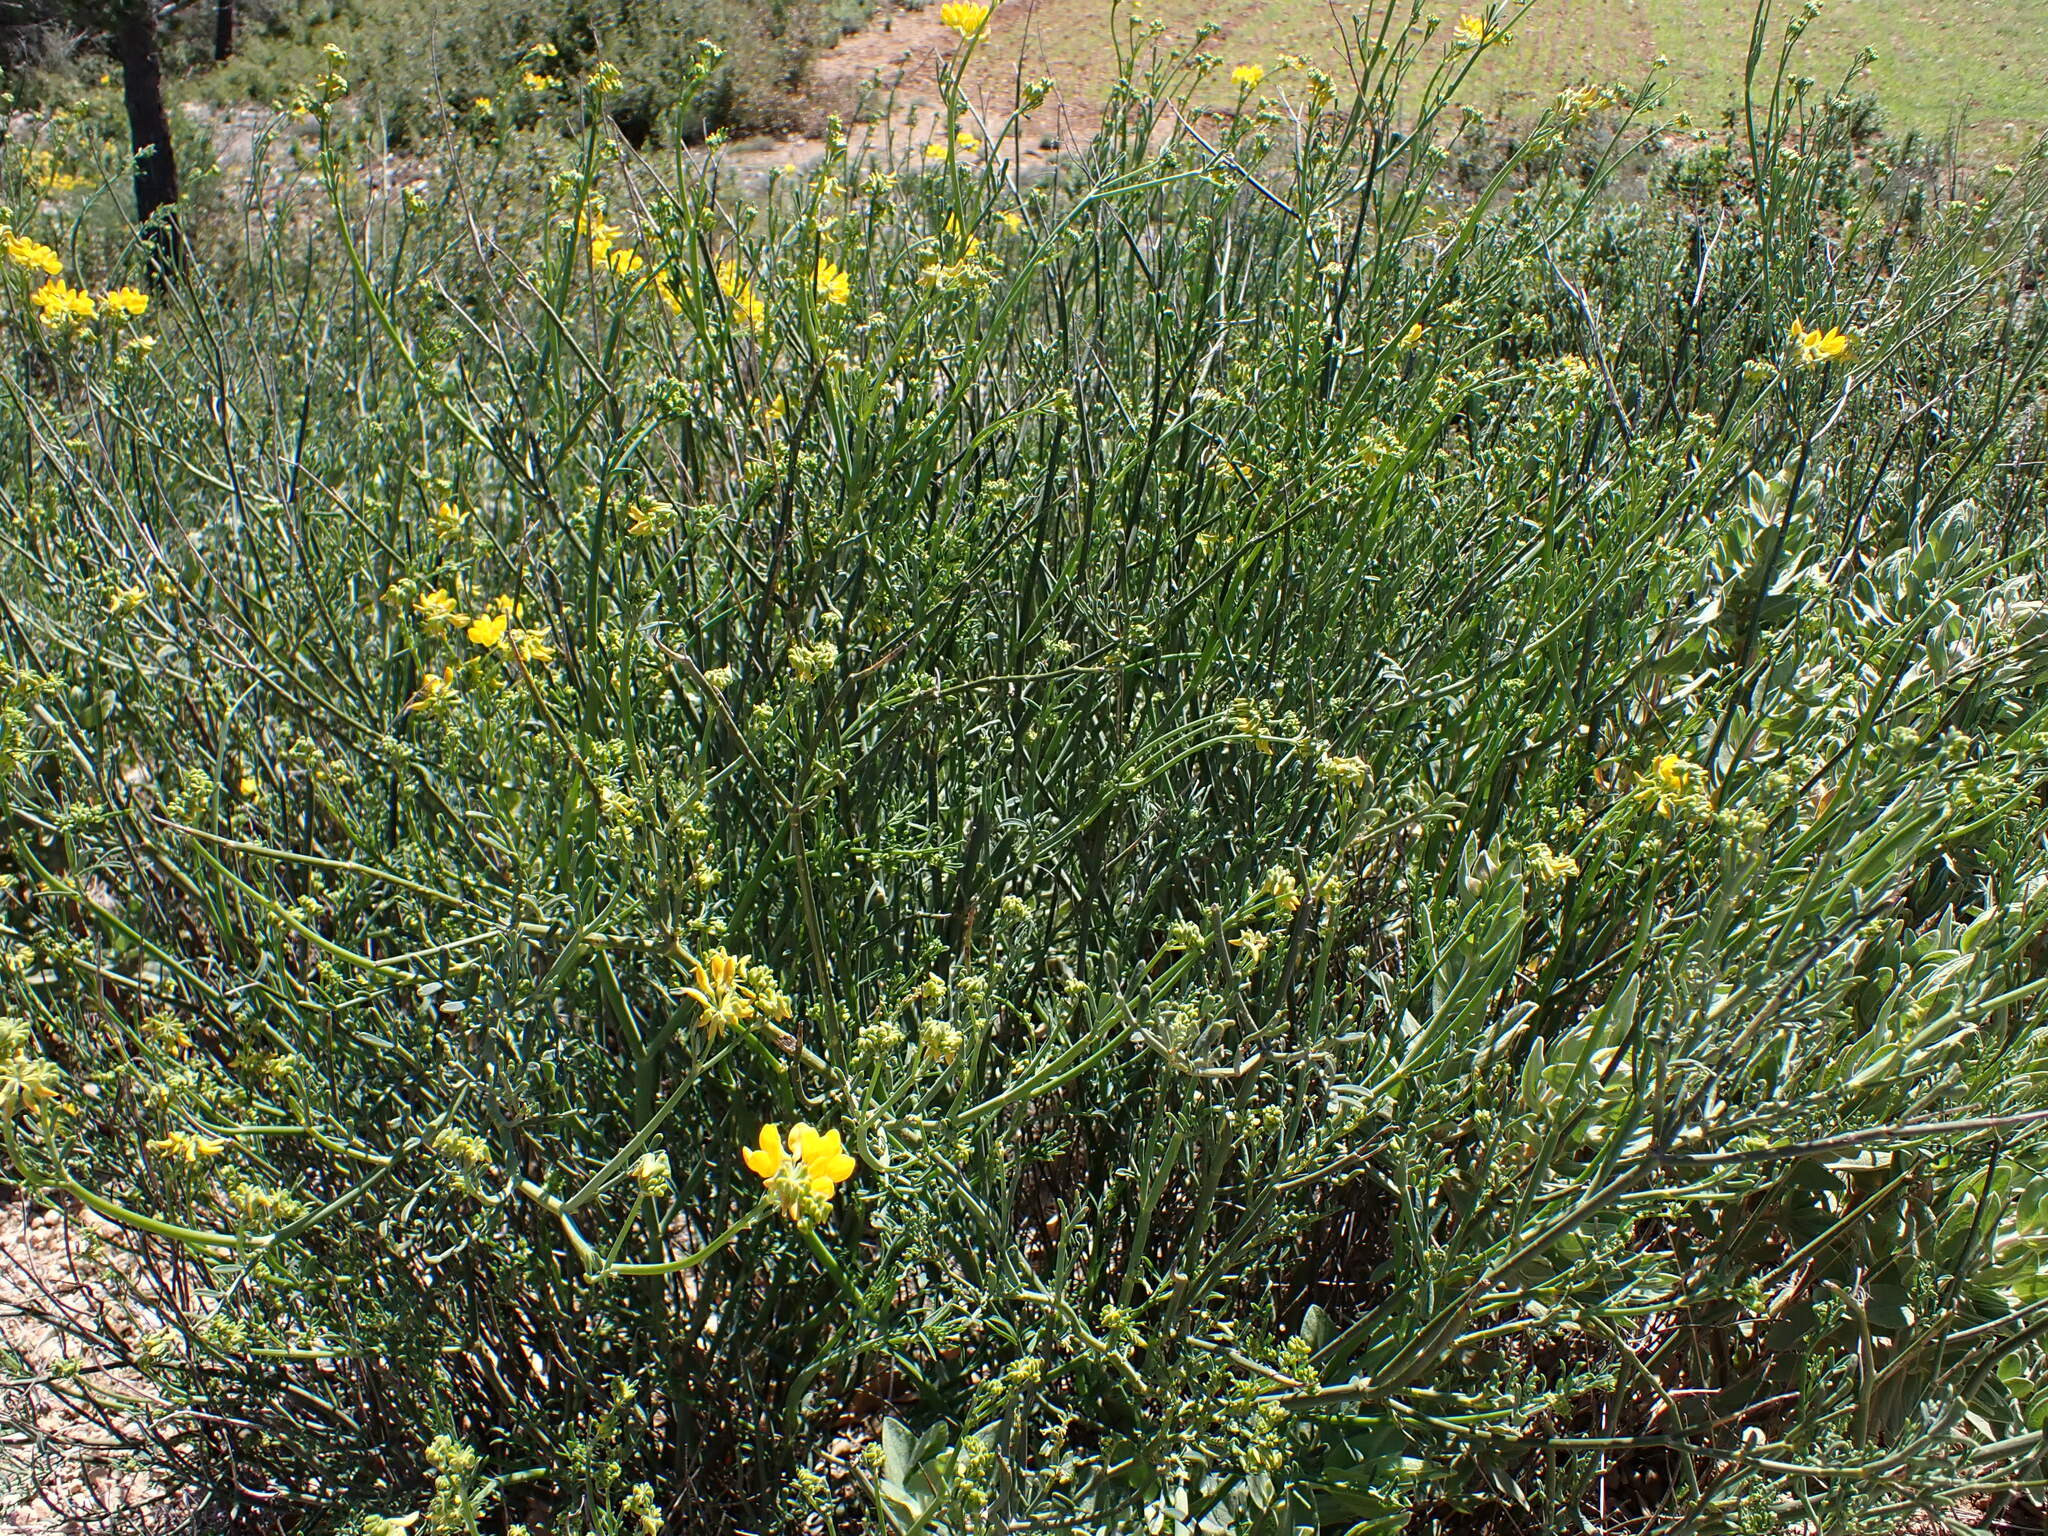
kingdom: Plantae
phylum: Tracheophyta
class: Magnoliopsida
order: Fabales
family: Fabaceae
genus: Coronilla
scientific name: Coronilla juncea
